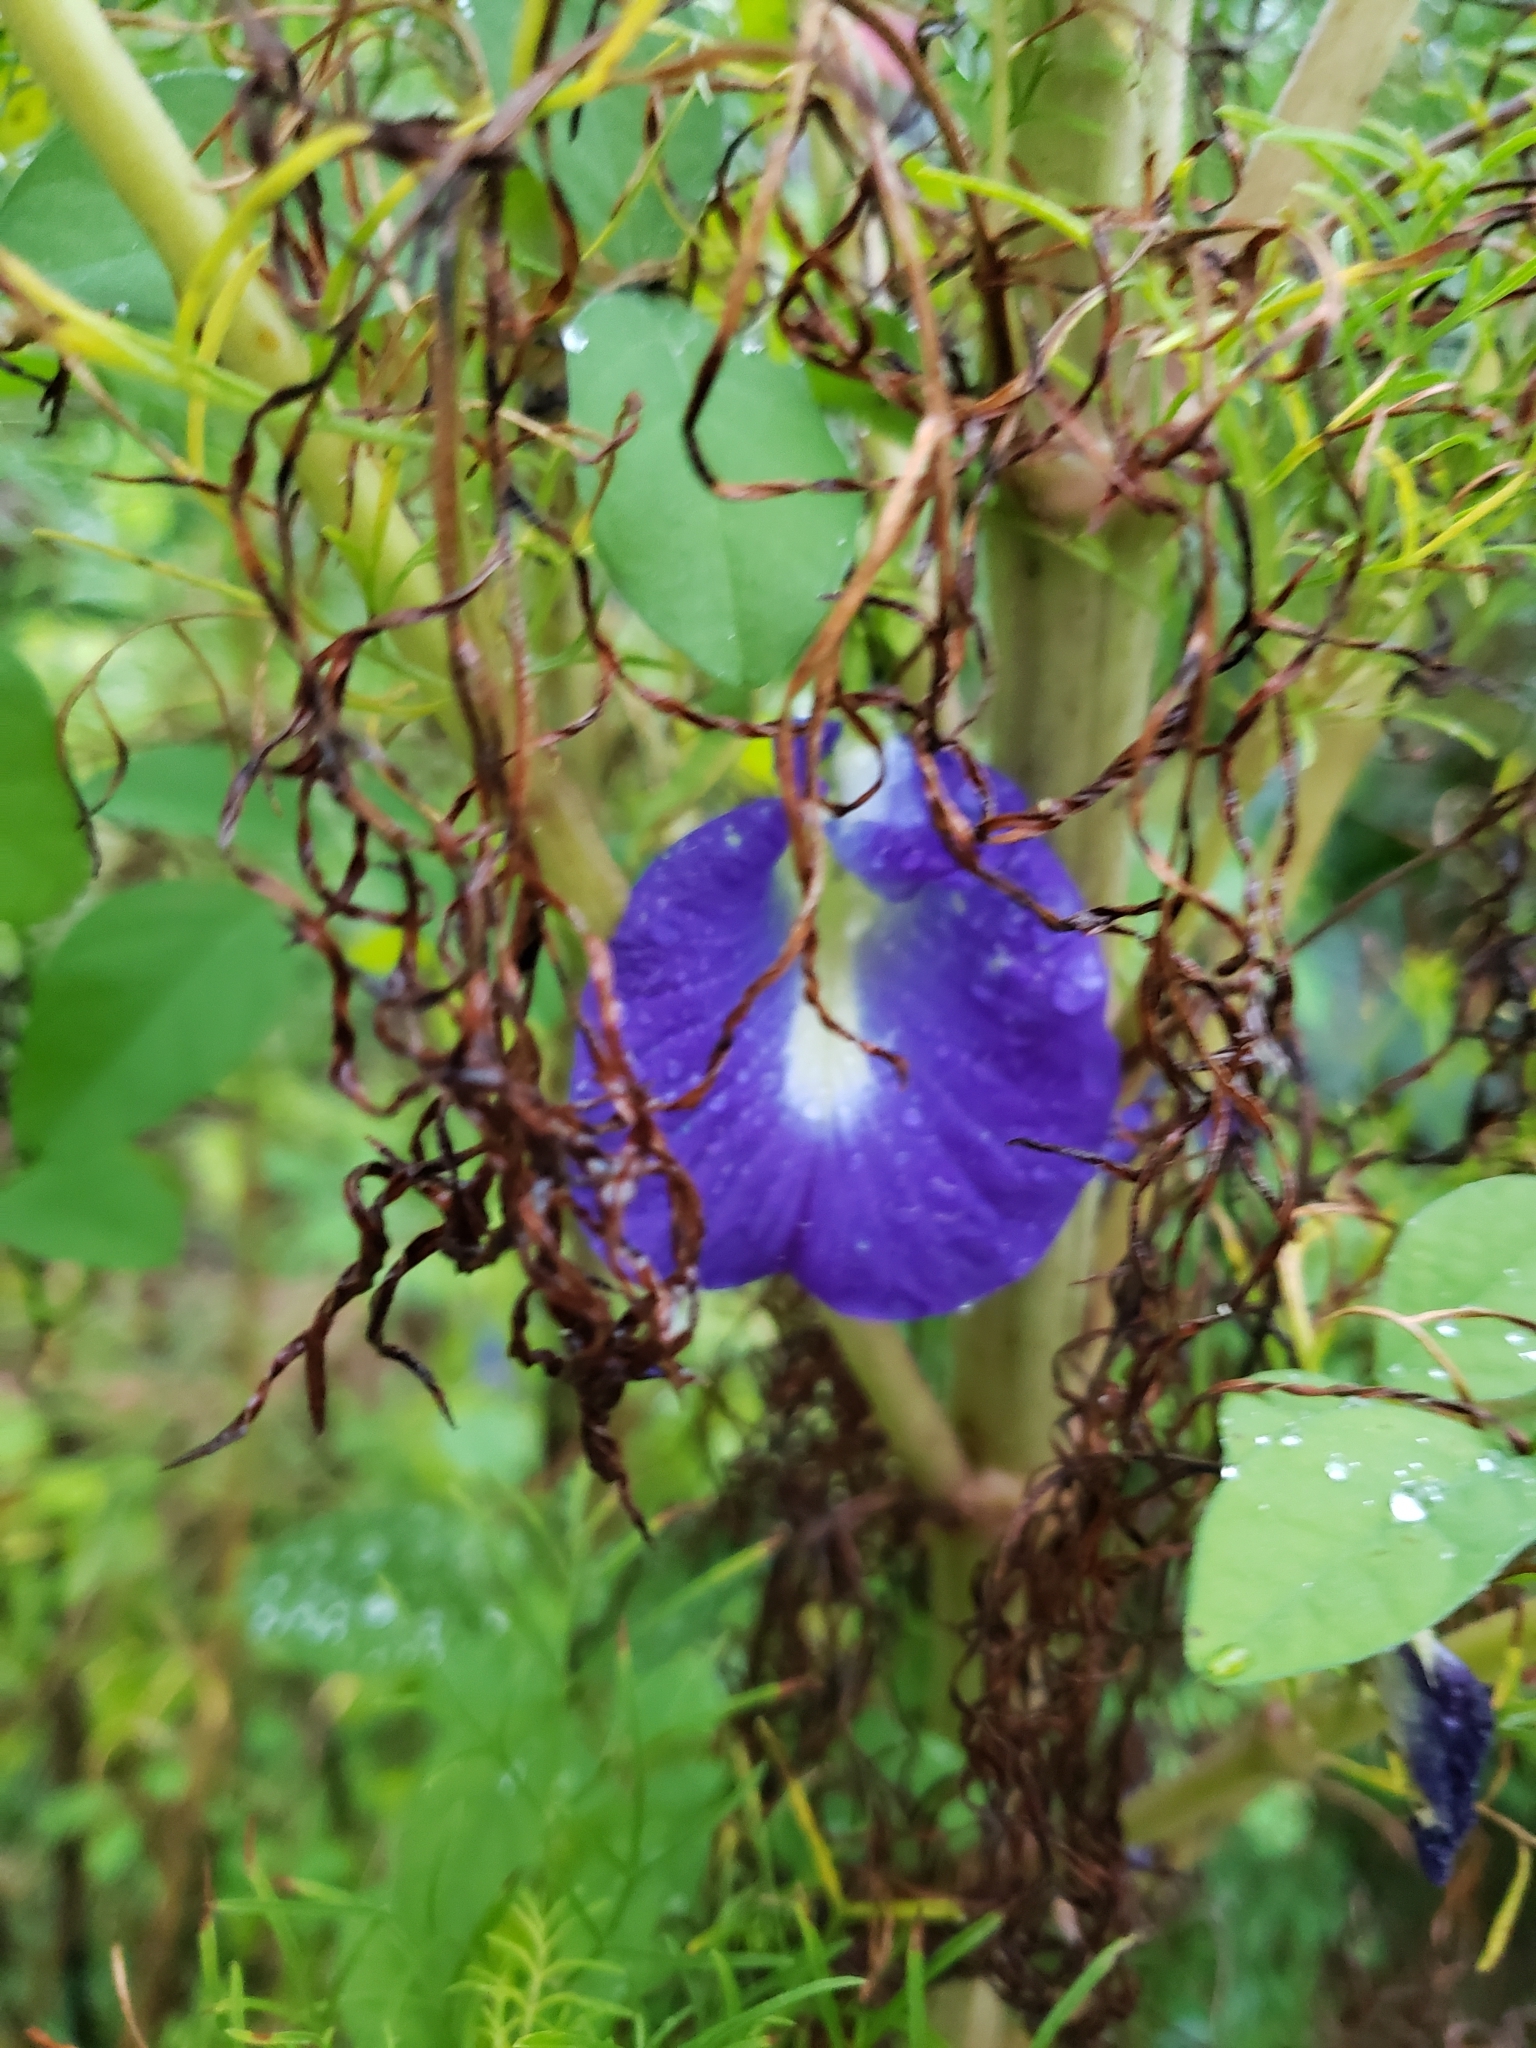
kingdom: Plantae
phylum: Tracheophyta
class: Magnoliopsida
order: Fabales
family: Fabaceae
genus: Clitoria
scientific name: Clitoria ternatea
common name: Asian pigeonwings
